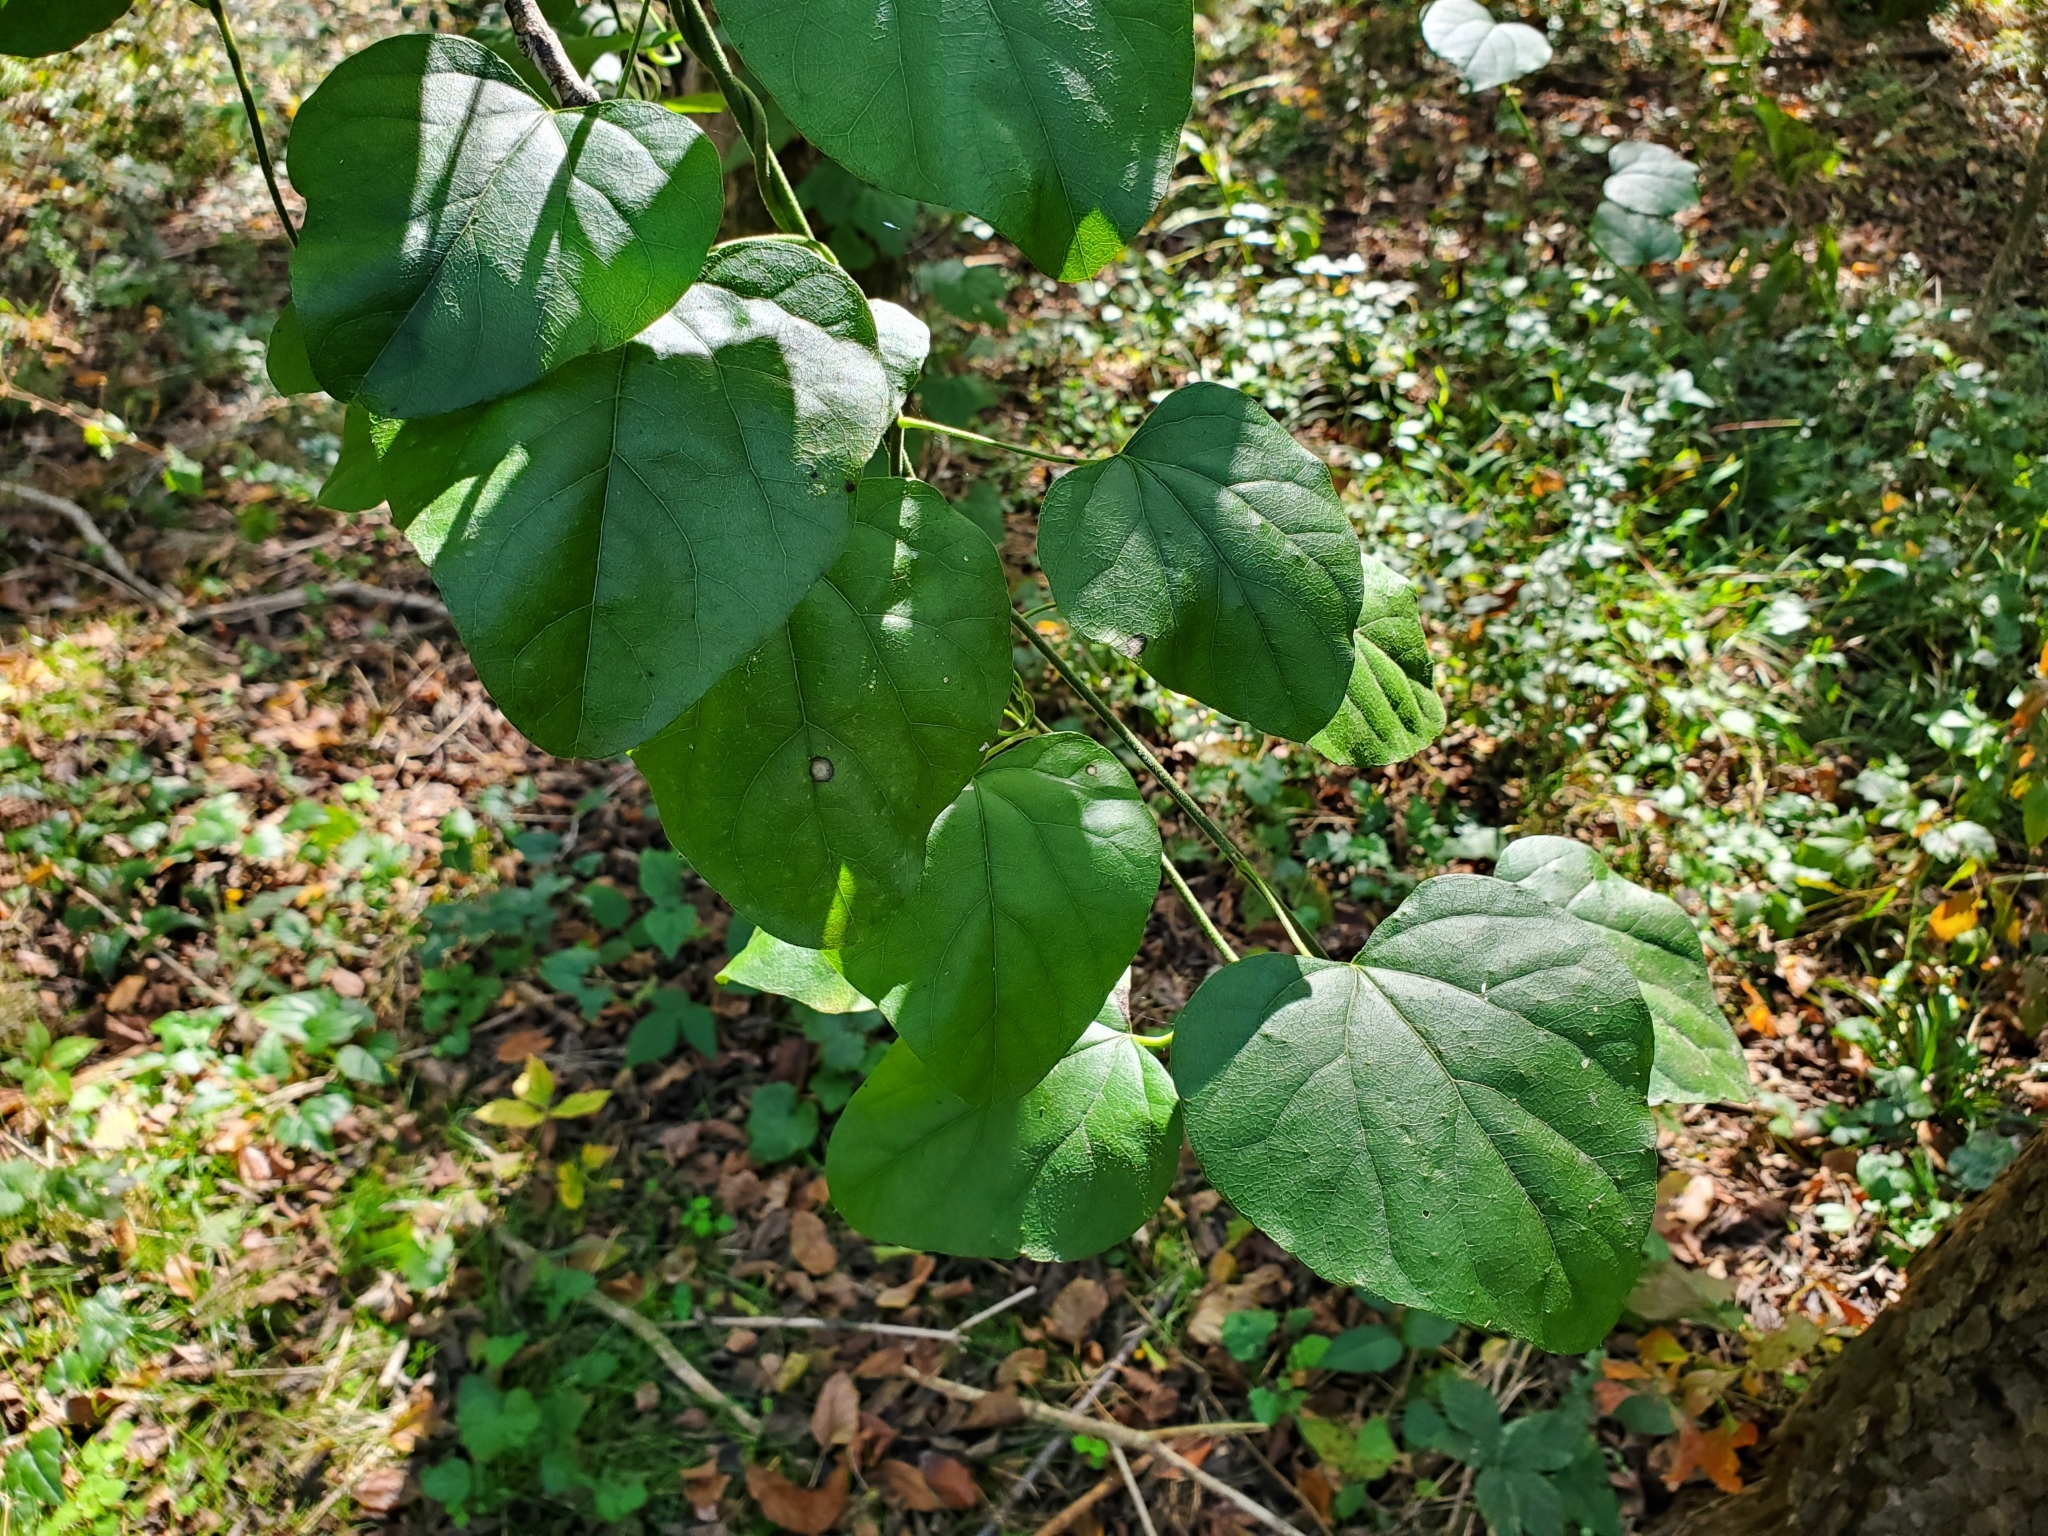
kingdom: Plantae
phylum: Tracheophyta
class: Magnoliopsida
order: Ranunculales
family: Menispermaceae
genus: Cocculus
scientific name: Cocculus carolinus
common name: Carolina moonseed
